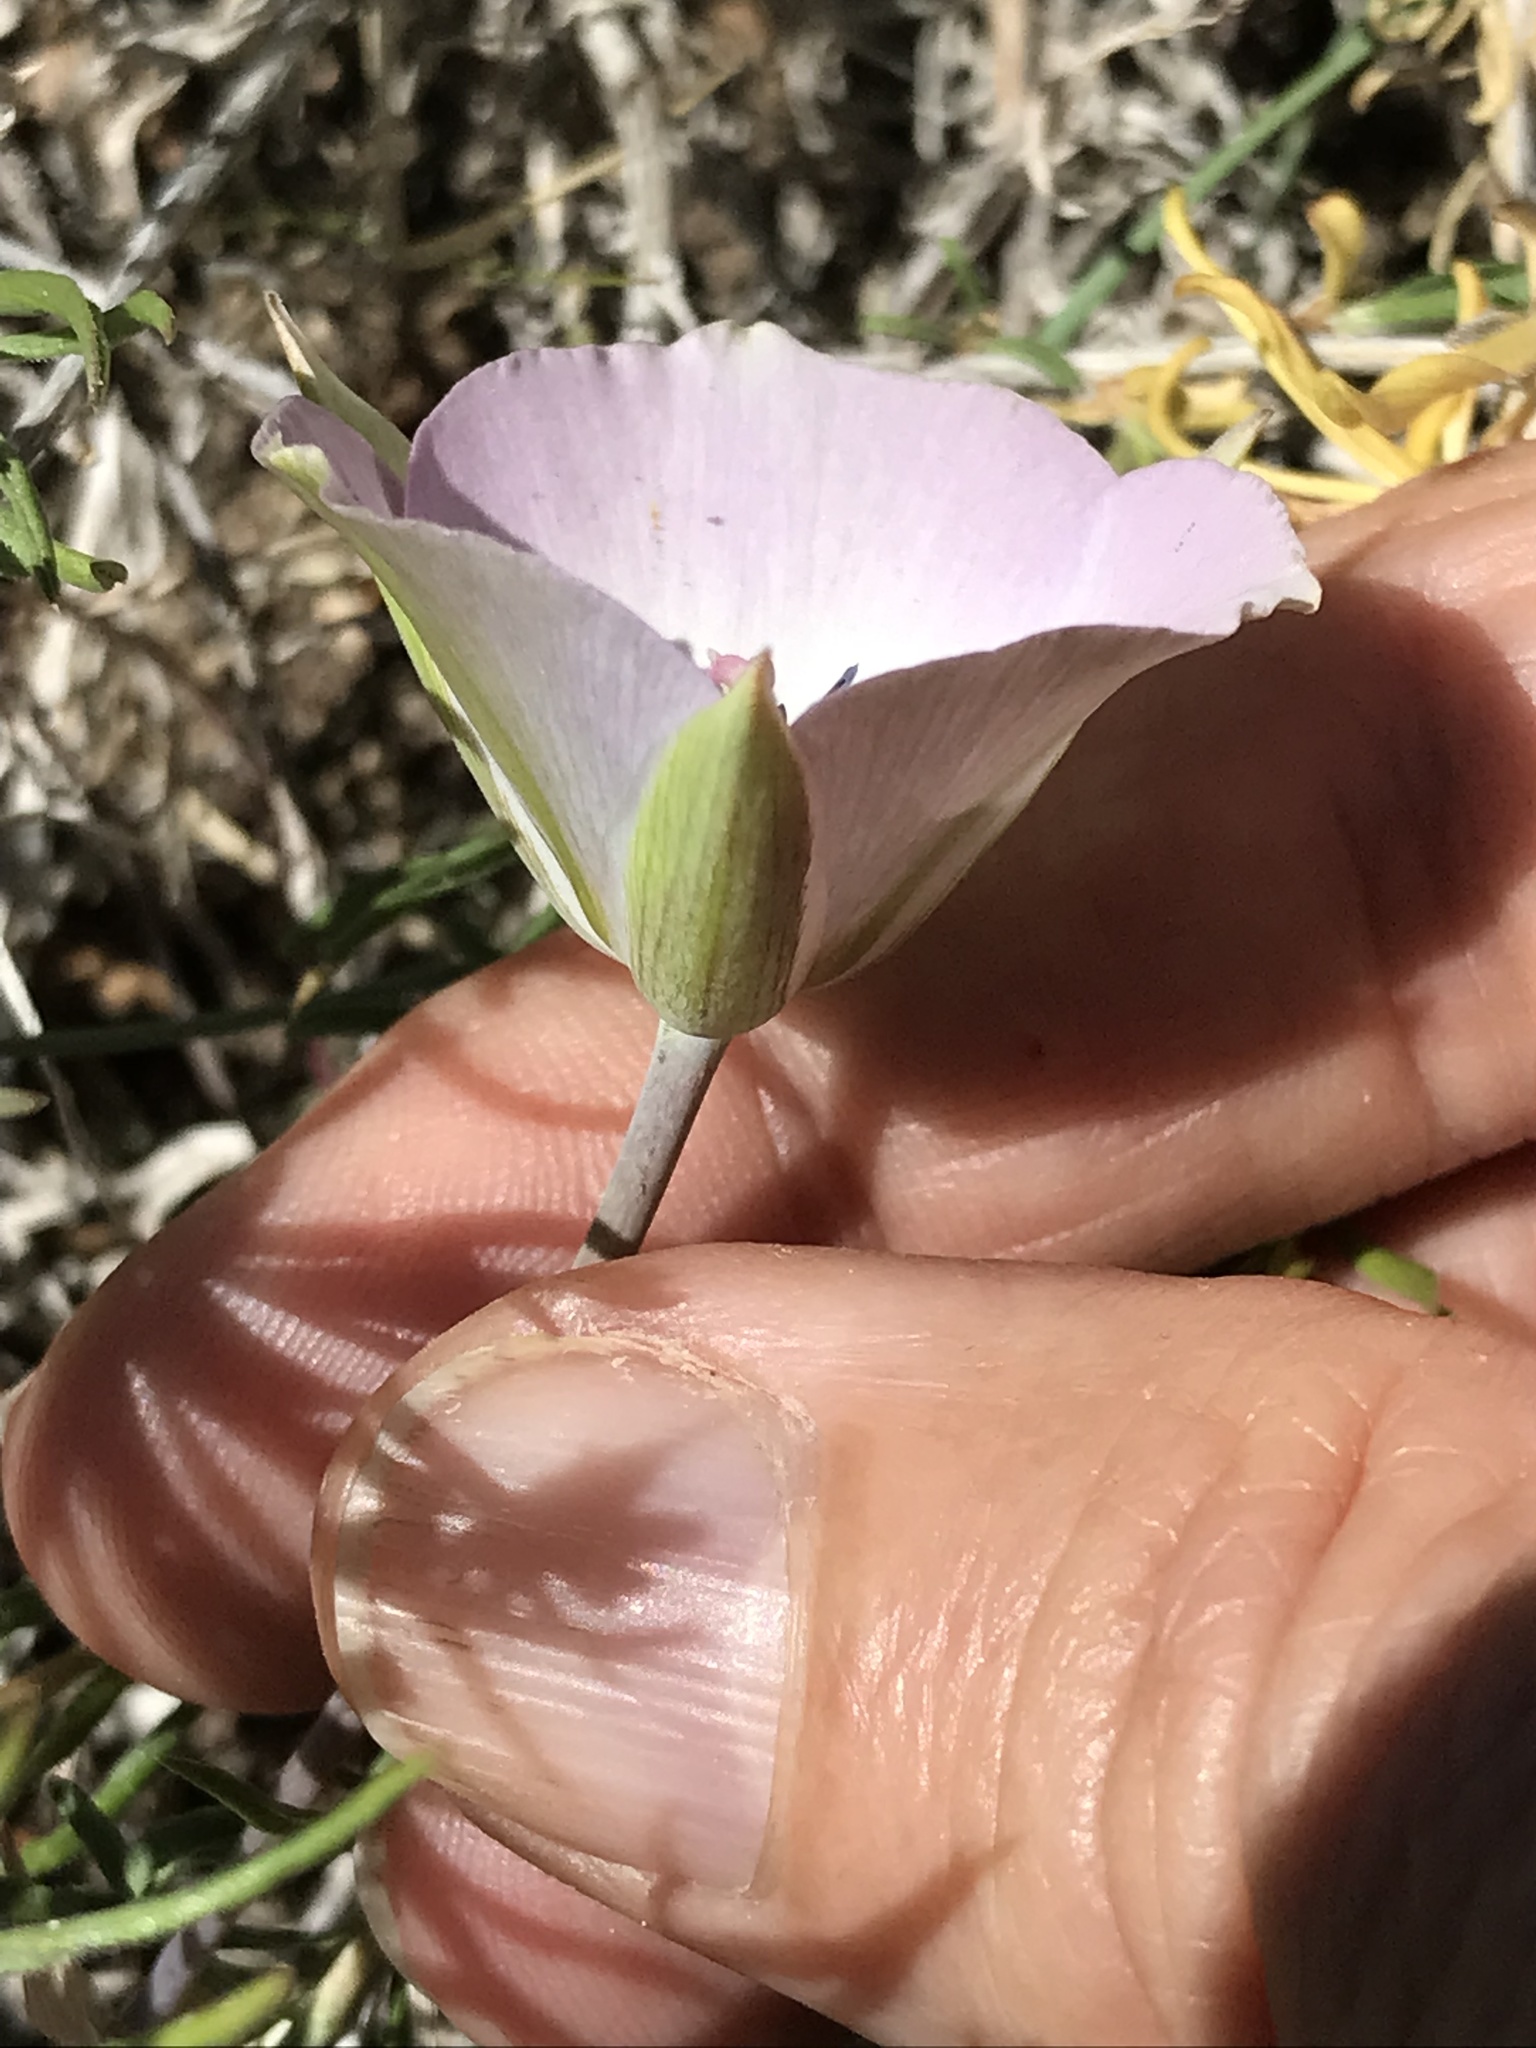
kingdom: Plantae
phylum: Tracheophyta
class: Liliopsida
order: Liliales
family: Liliaceae
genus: Calochortus
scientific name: Calochortus invenustus
